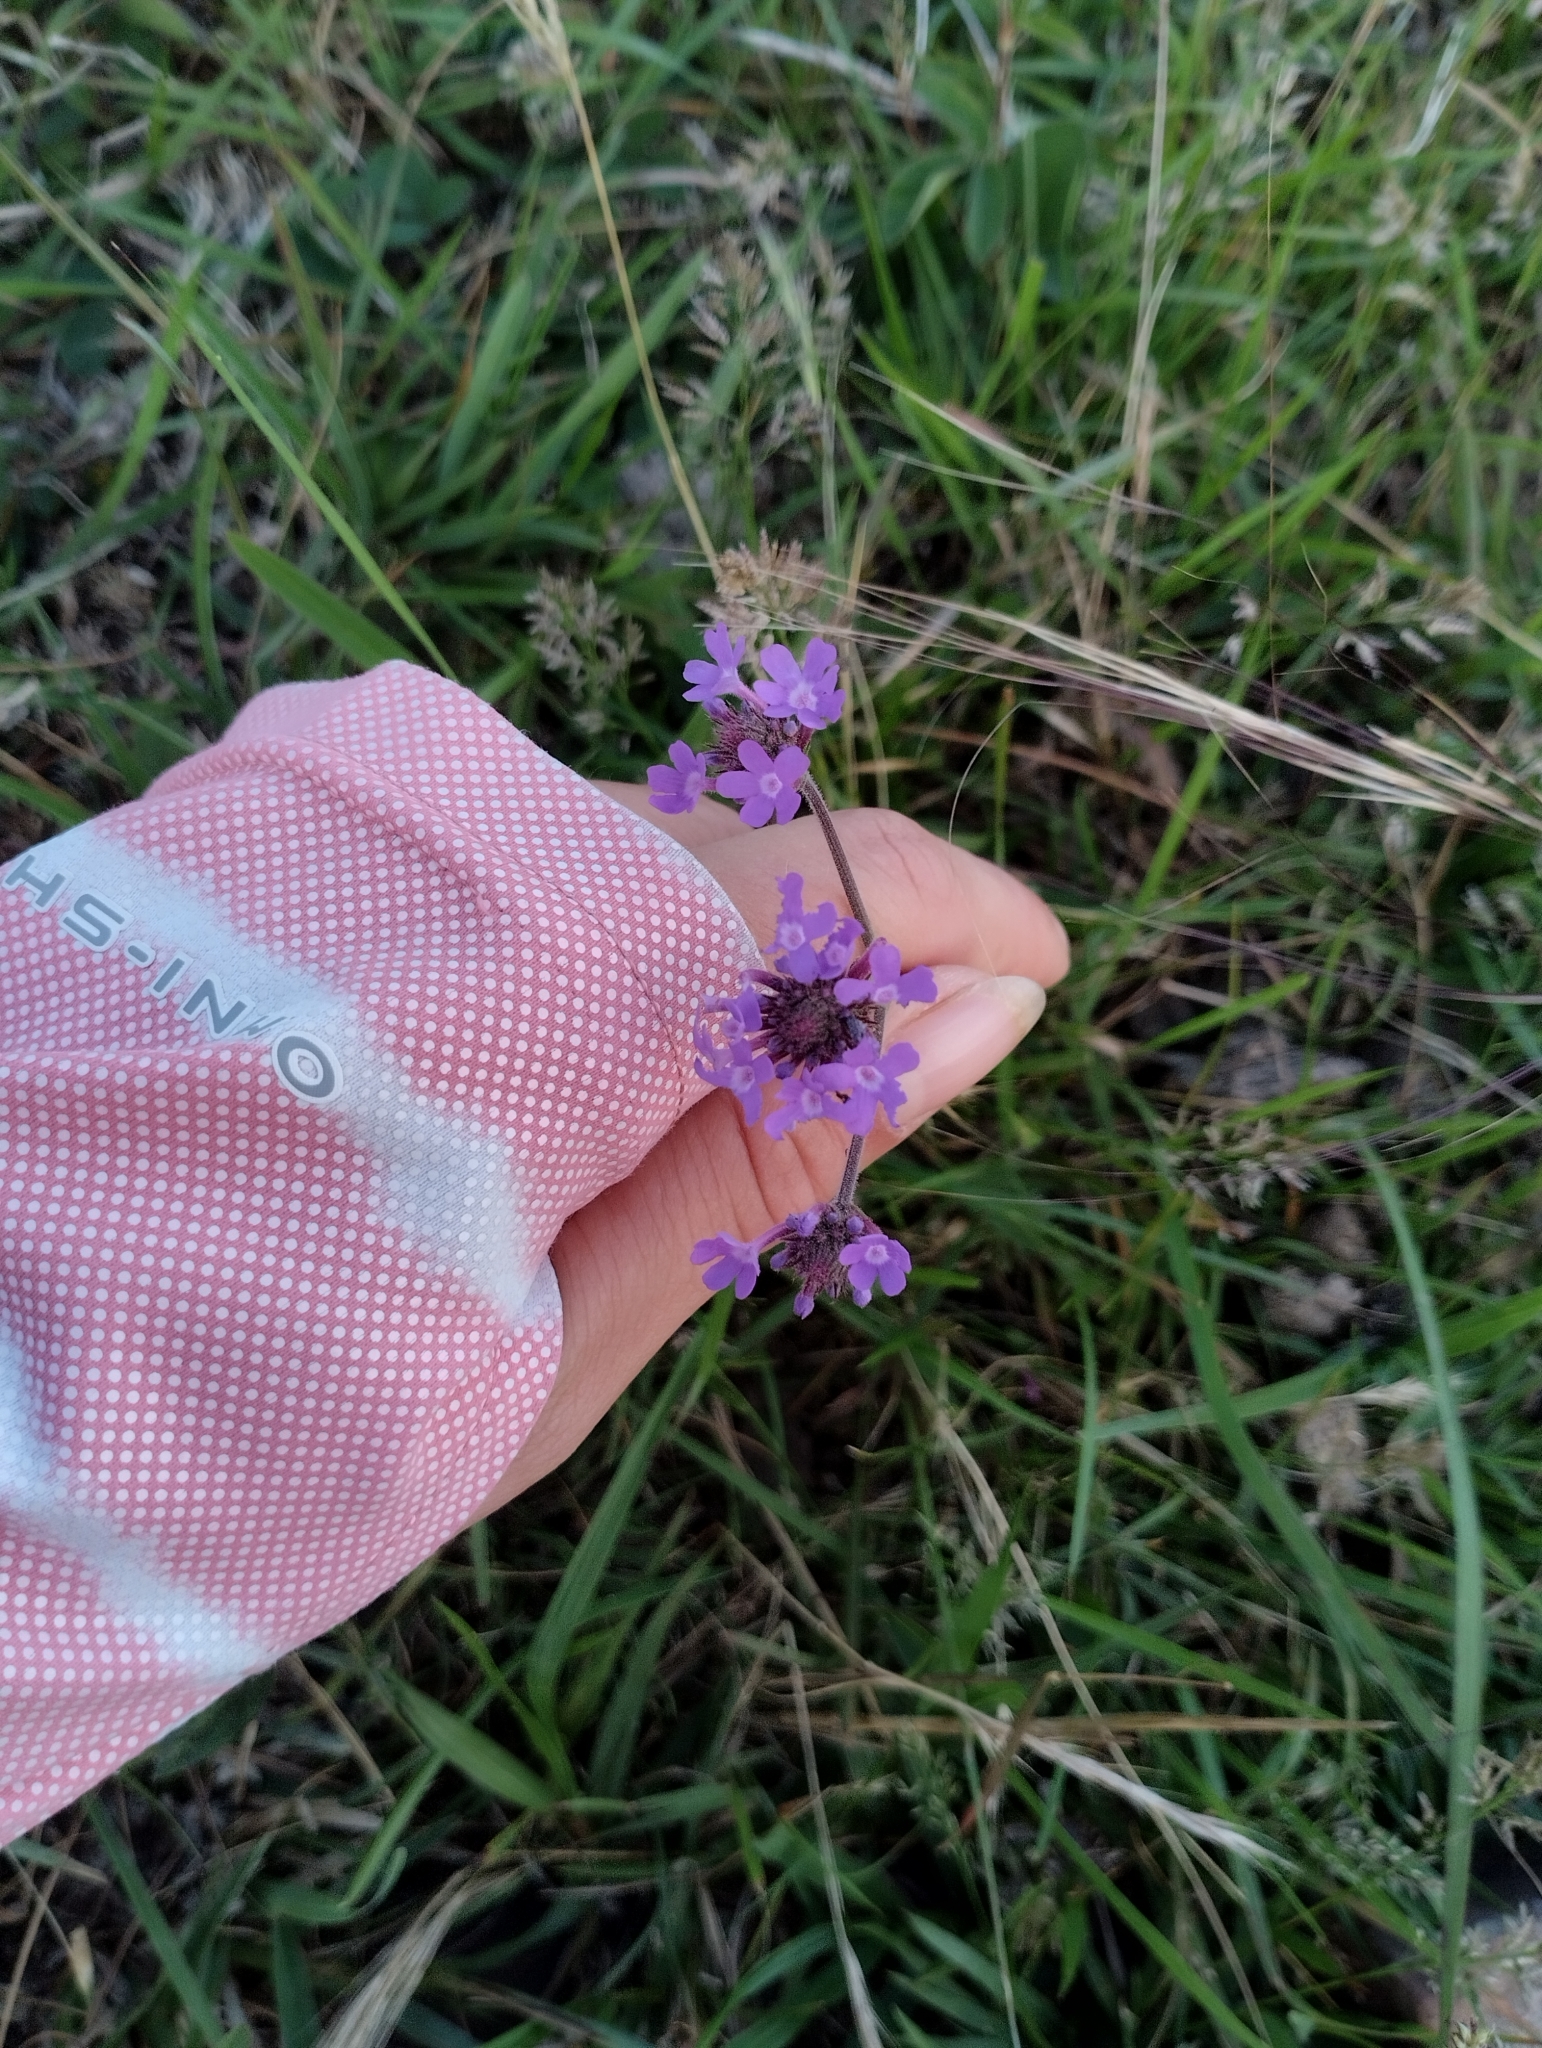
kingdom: Plantae
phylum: Tracheophyta
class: Magnoliopsida
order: Lamiales
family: Verbenaceae
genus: Verbena
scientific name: Verbena intermedia
